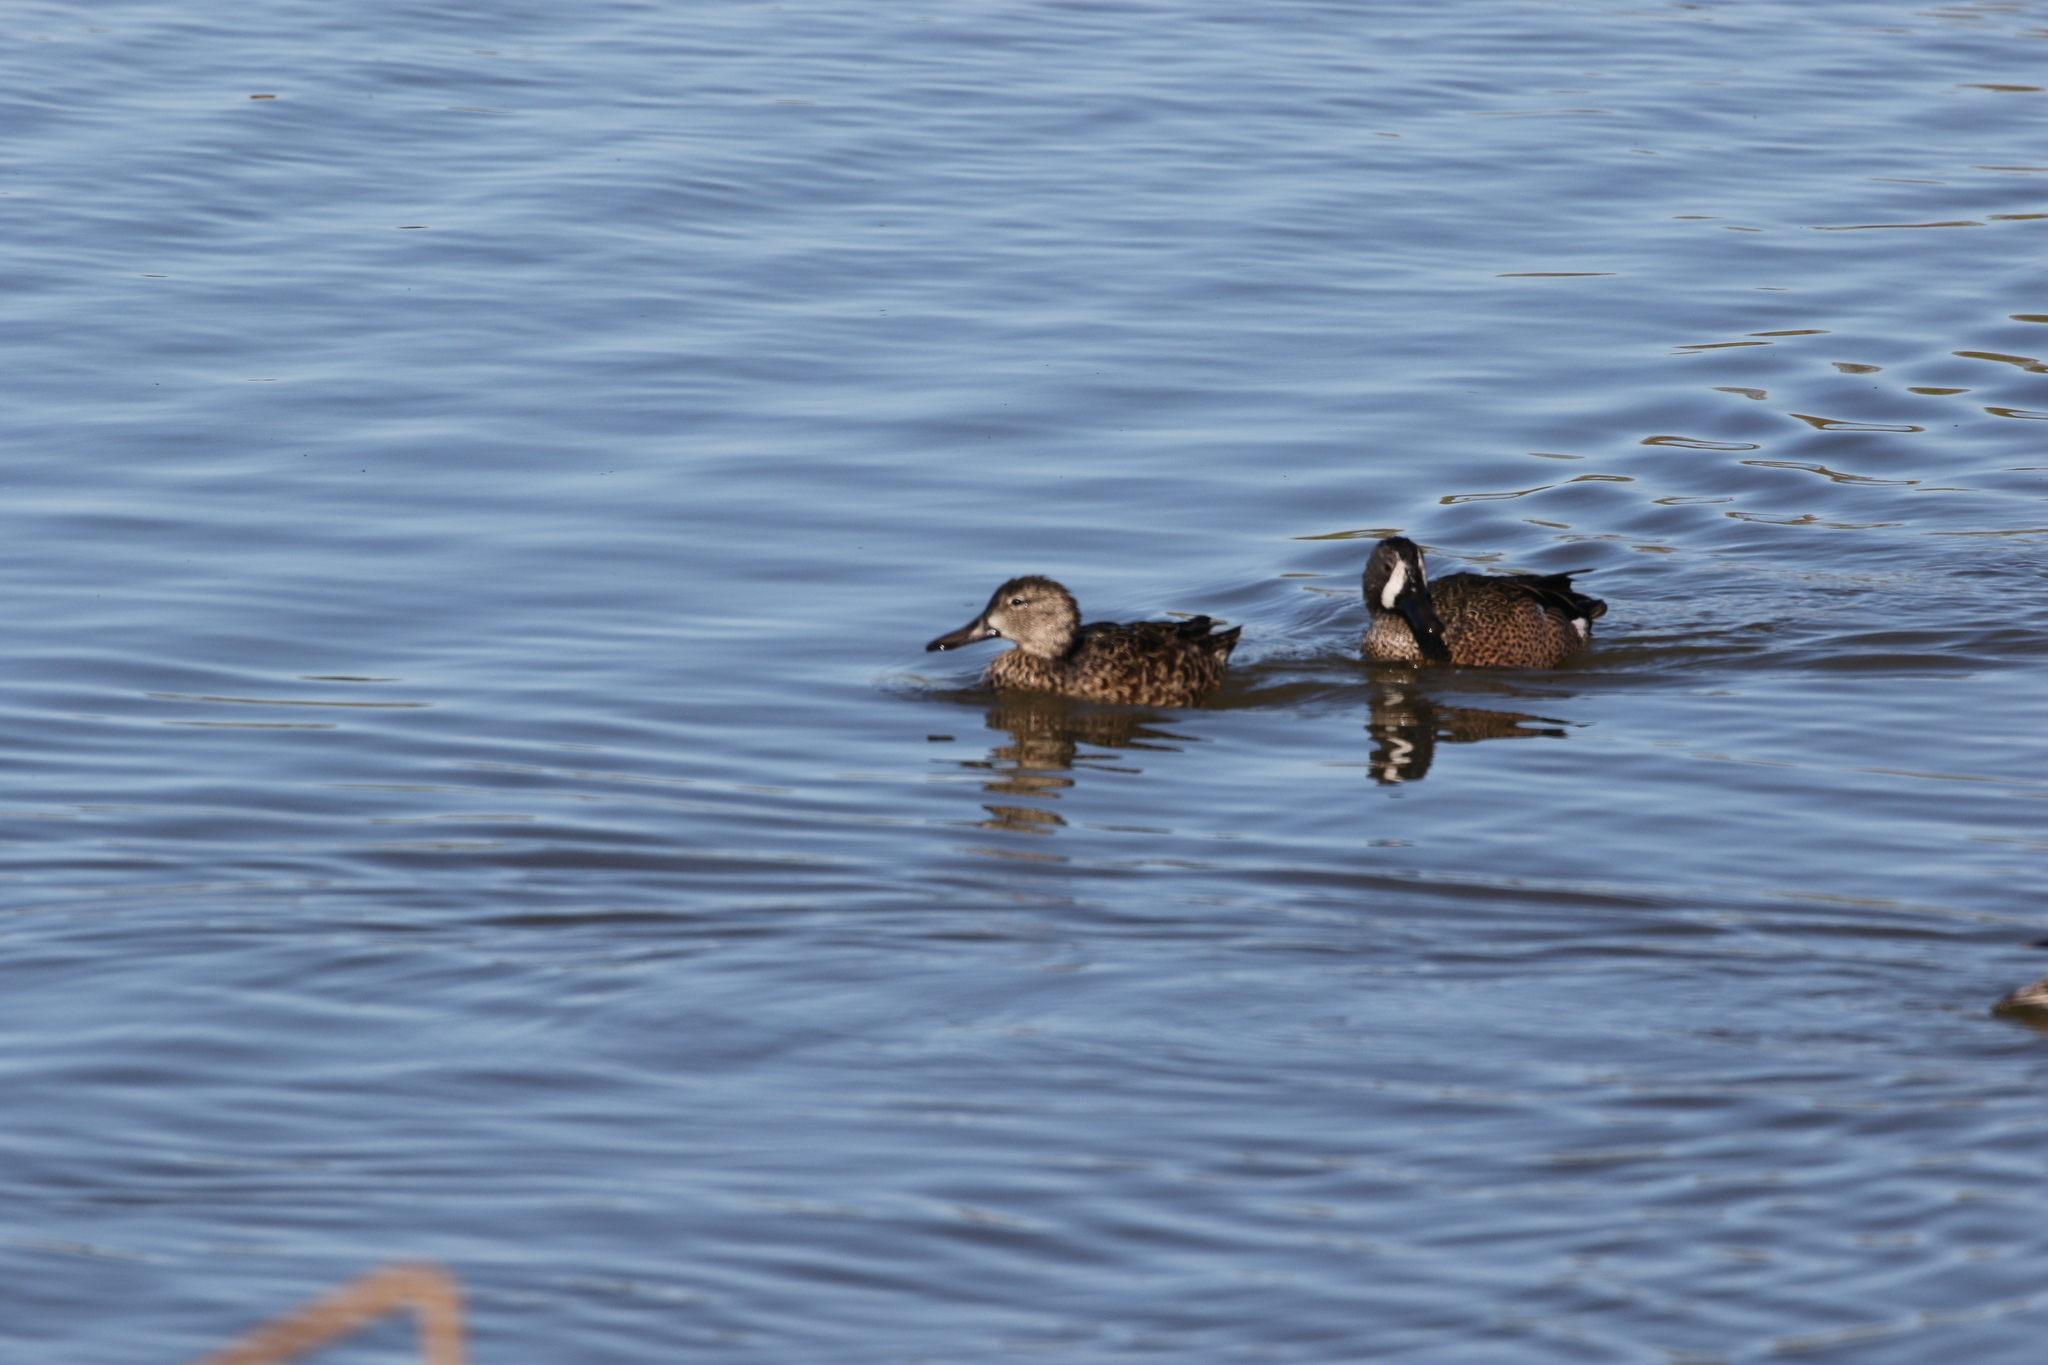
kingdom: Animalia
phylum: Chordata
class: Aves
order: Anseriformes
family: Anatidae
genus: Spatula
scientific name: Spatula discors
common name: Blue-winged teal
